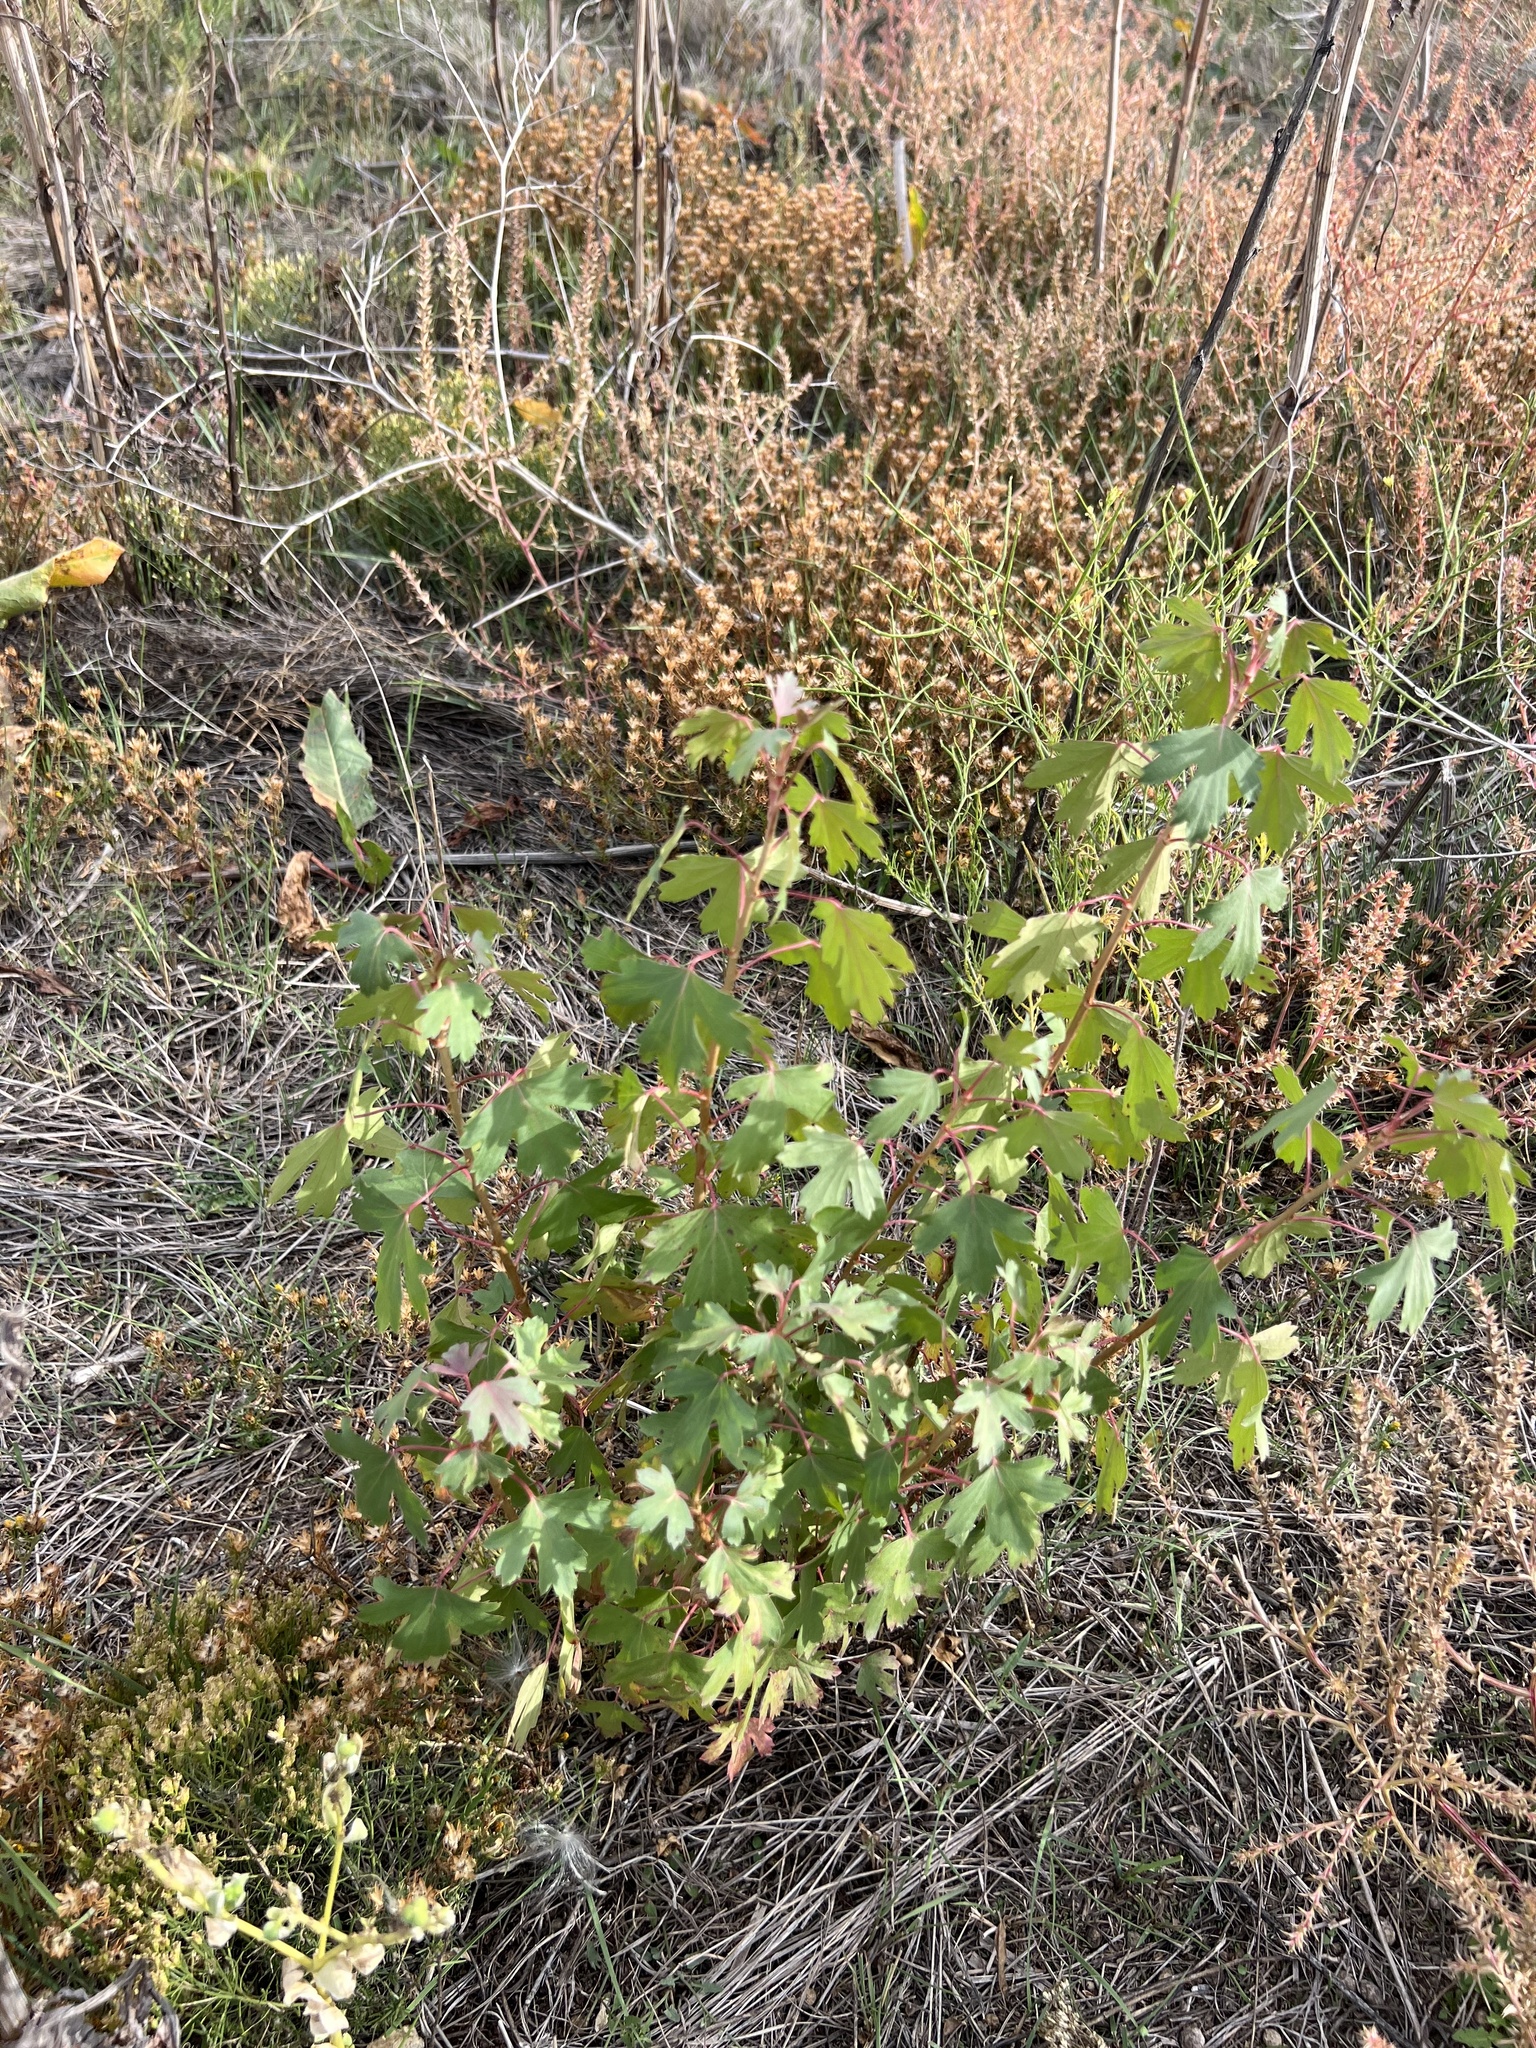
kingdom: Plantae
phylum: Tracheophyta
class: Magnoliopsida
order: Saxifragales
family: Grossulariaceae
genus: Ribes
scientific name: Ribes aureum
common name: Golden currant
